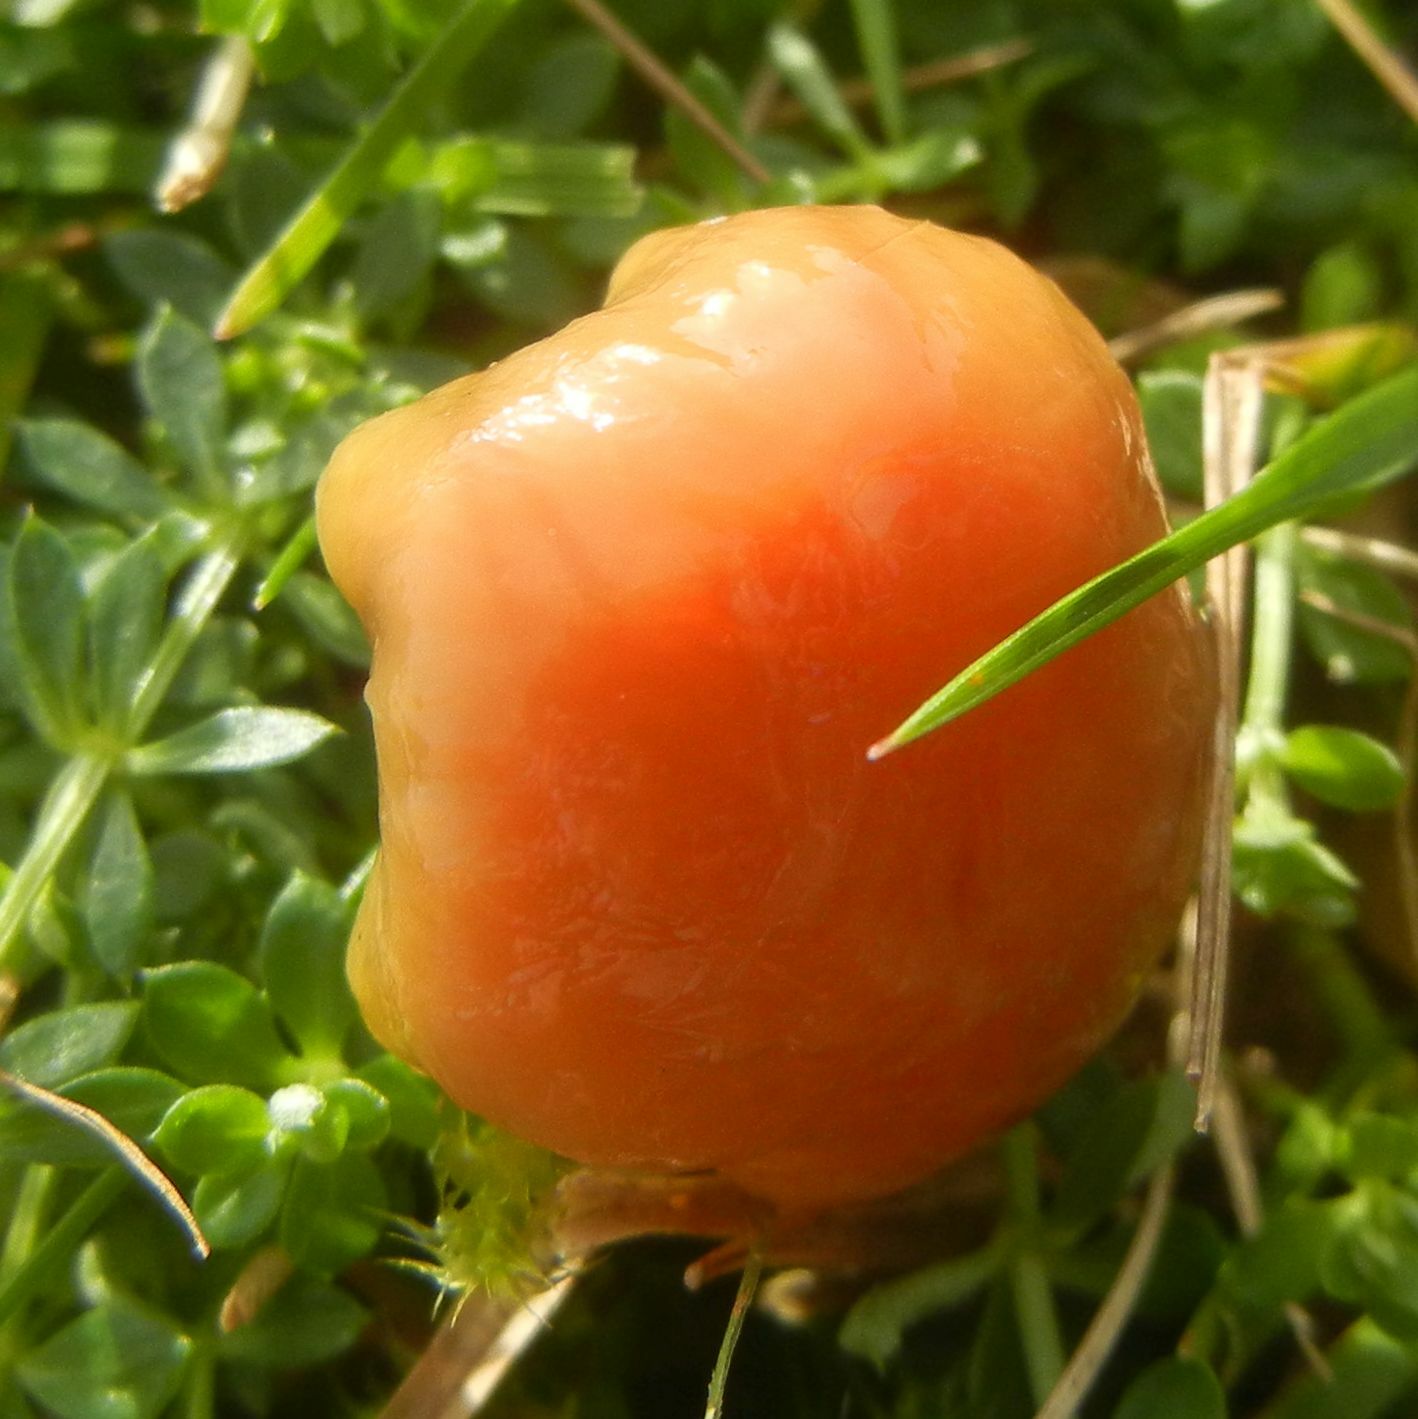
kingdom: Fungi
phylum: Basidiomycota
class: Agaricomycetes
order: Agaricales
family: Hygrophoraceae
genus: Gliophorus
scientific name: Gliophorus laetus
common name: Heath waxcap
